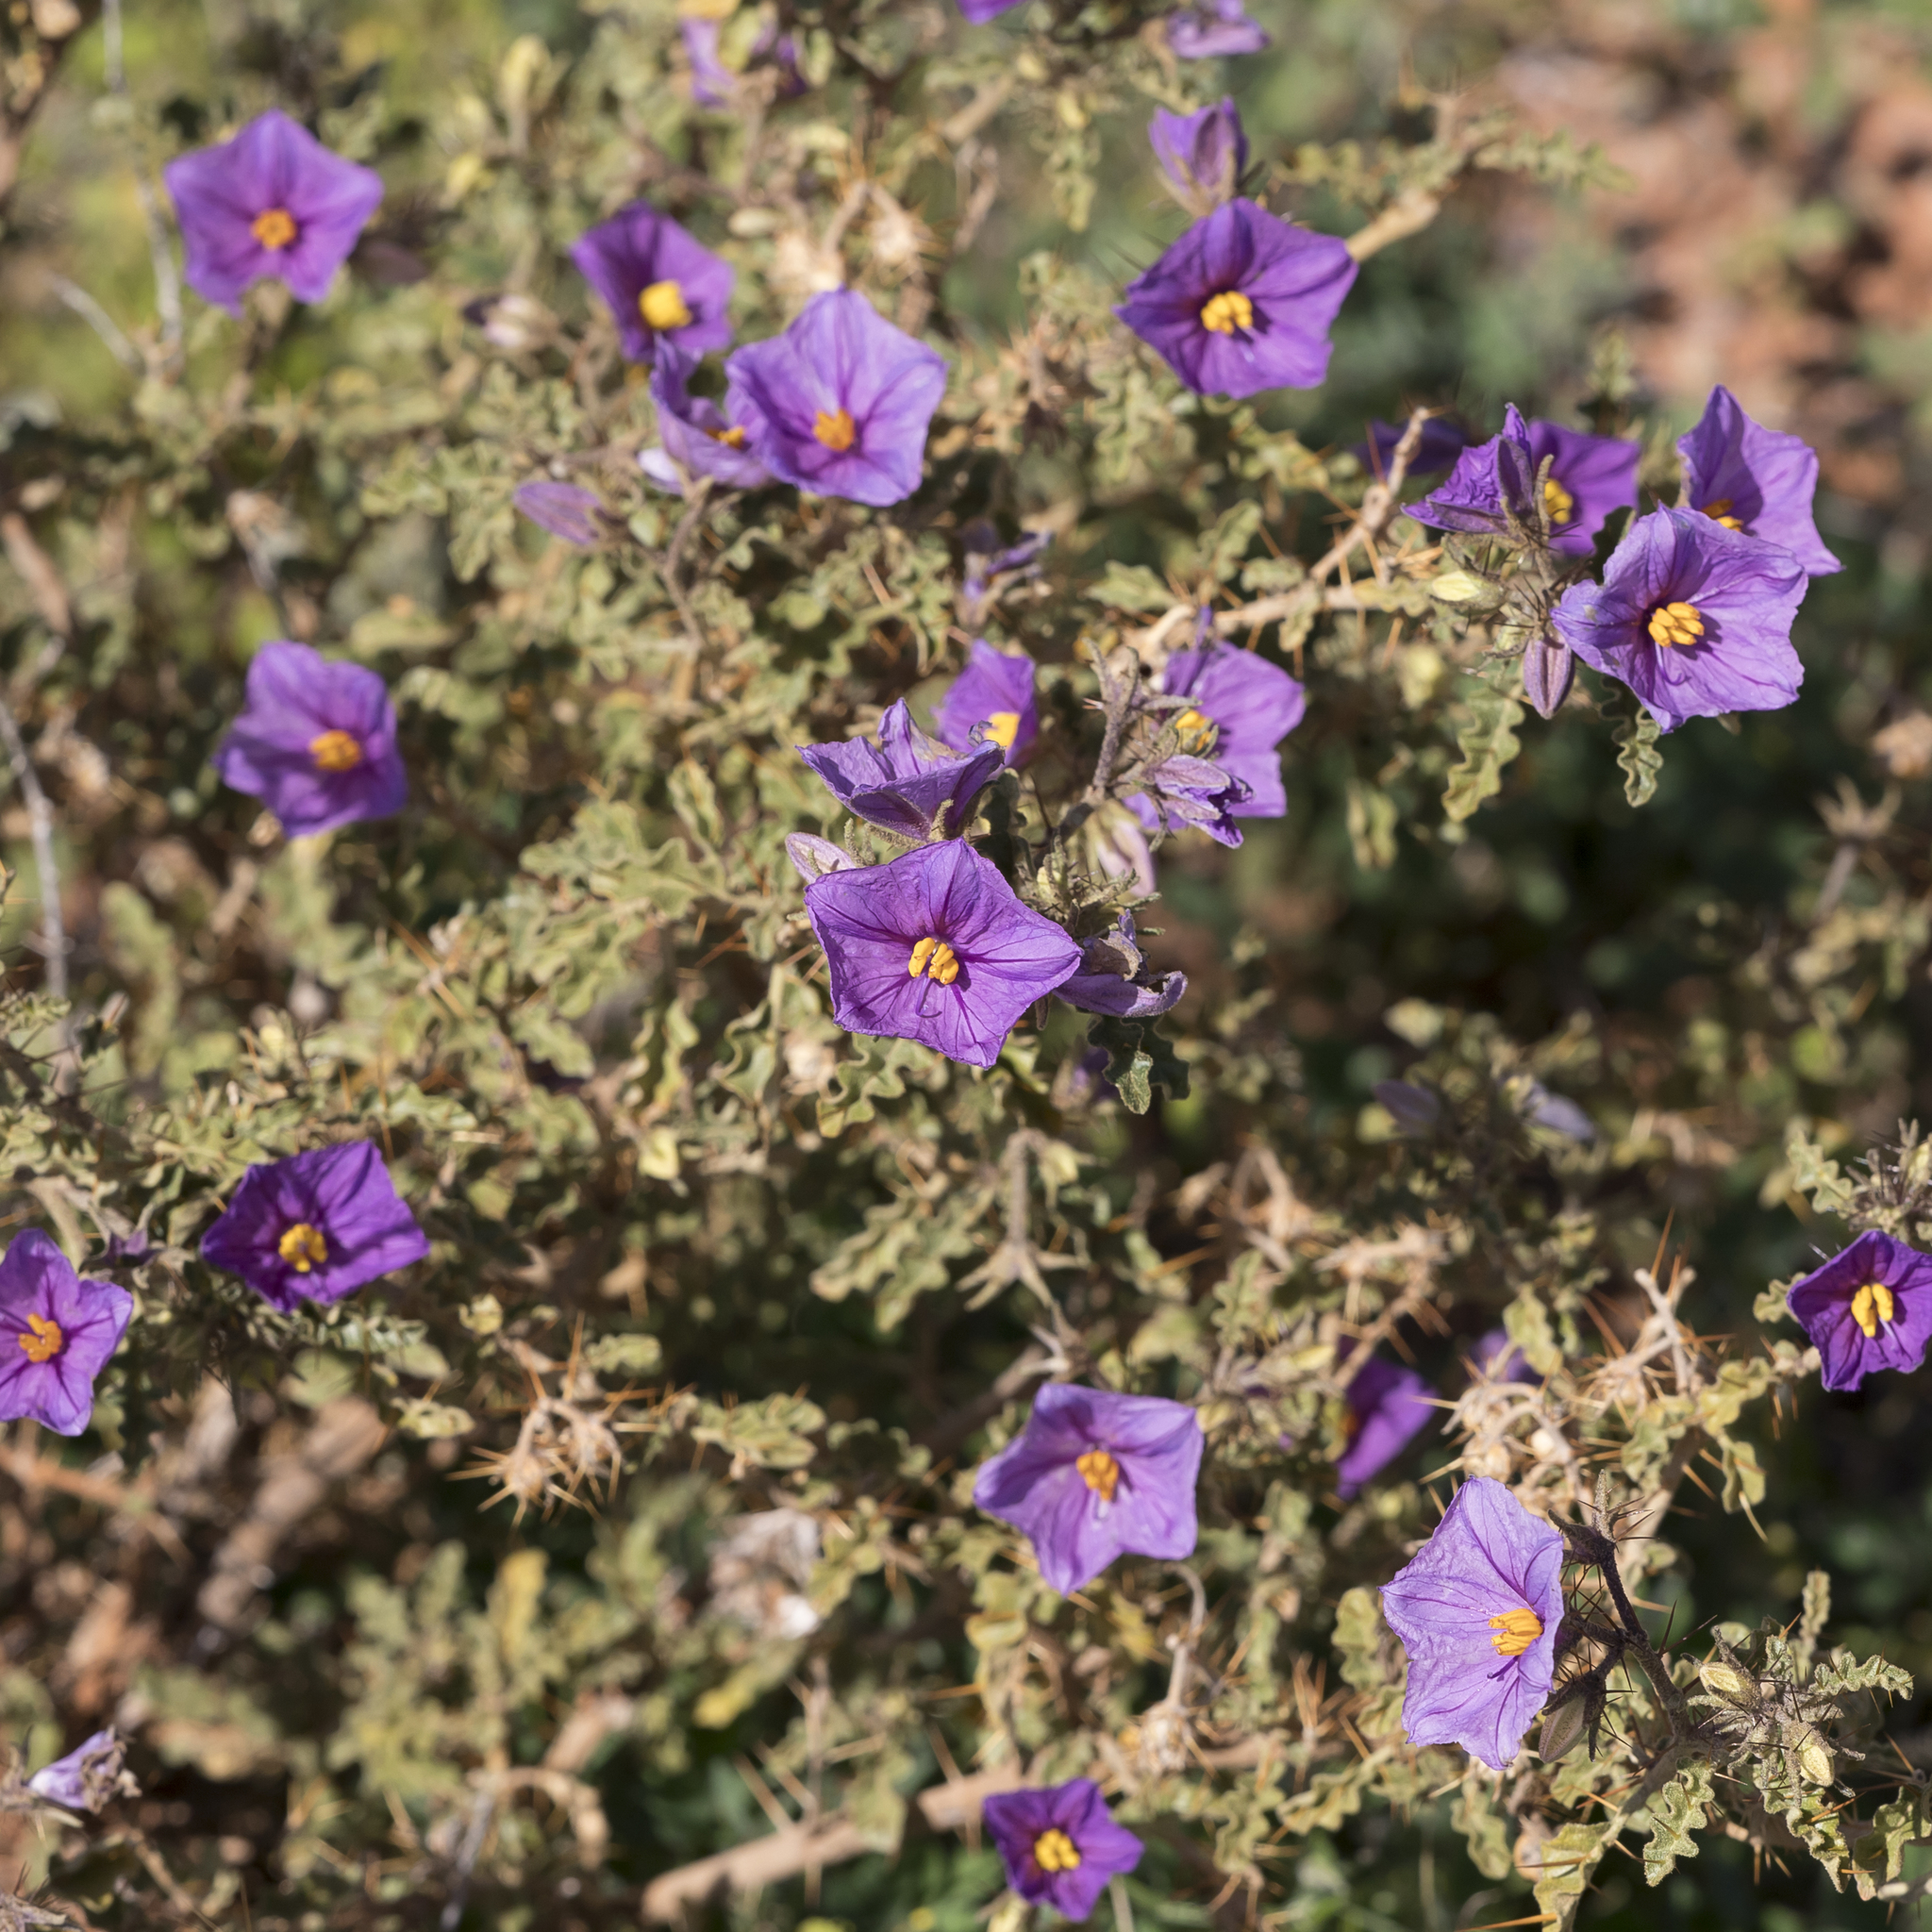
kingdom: Plantae
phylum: Tracheophyta
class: Magnoliopsida
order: Solanales
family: Solanaceae
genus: Solanum
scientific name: Solanum petrophilum
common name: Rock nightshade
